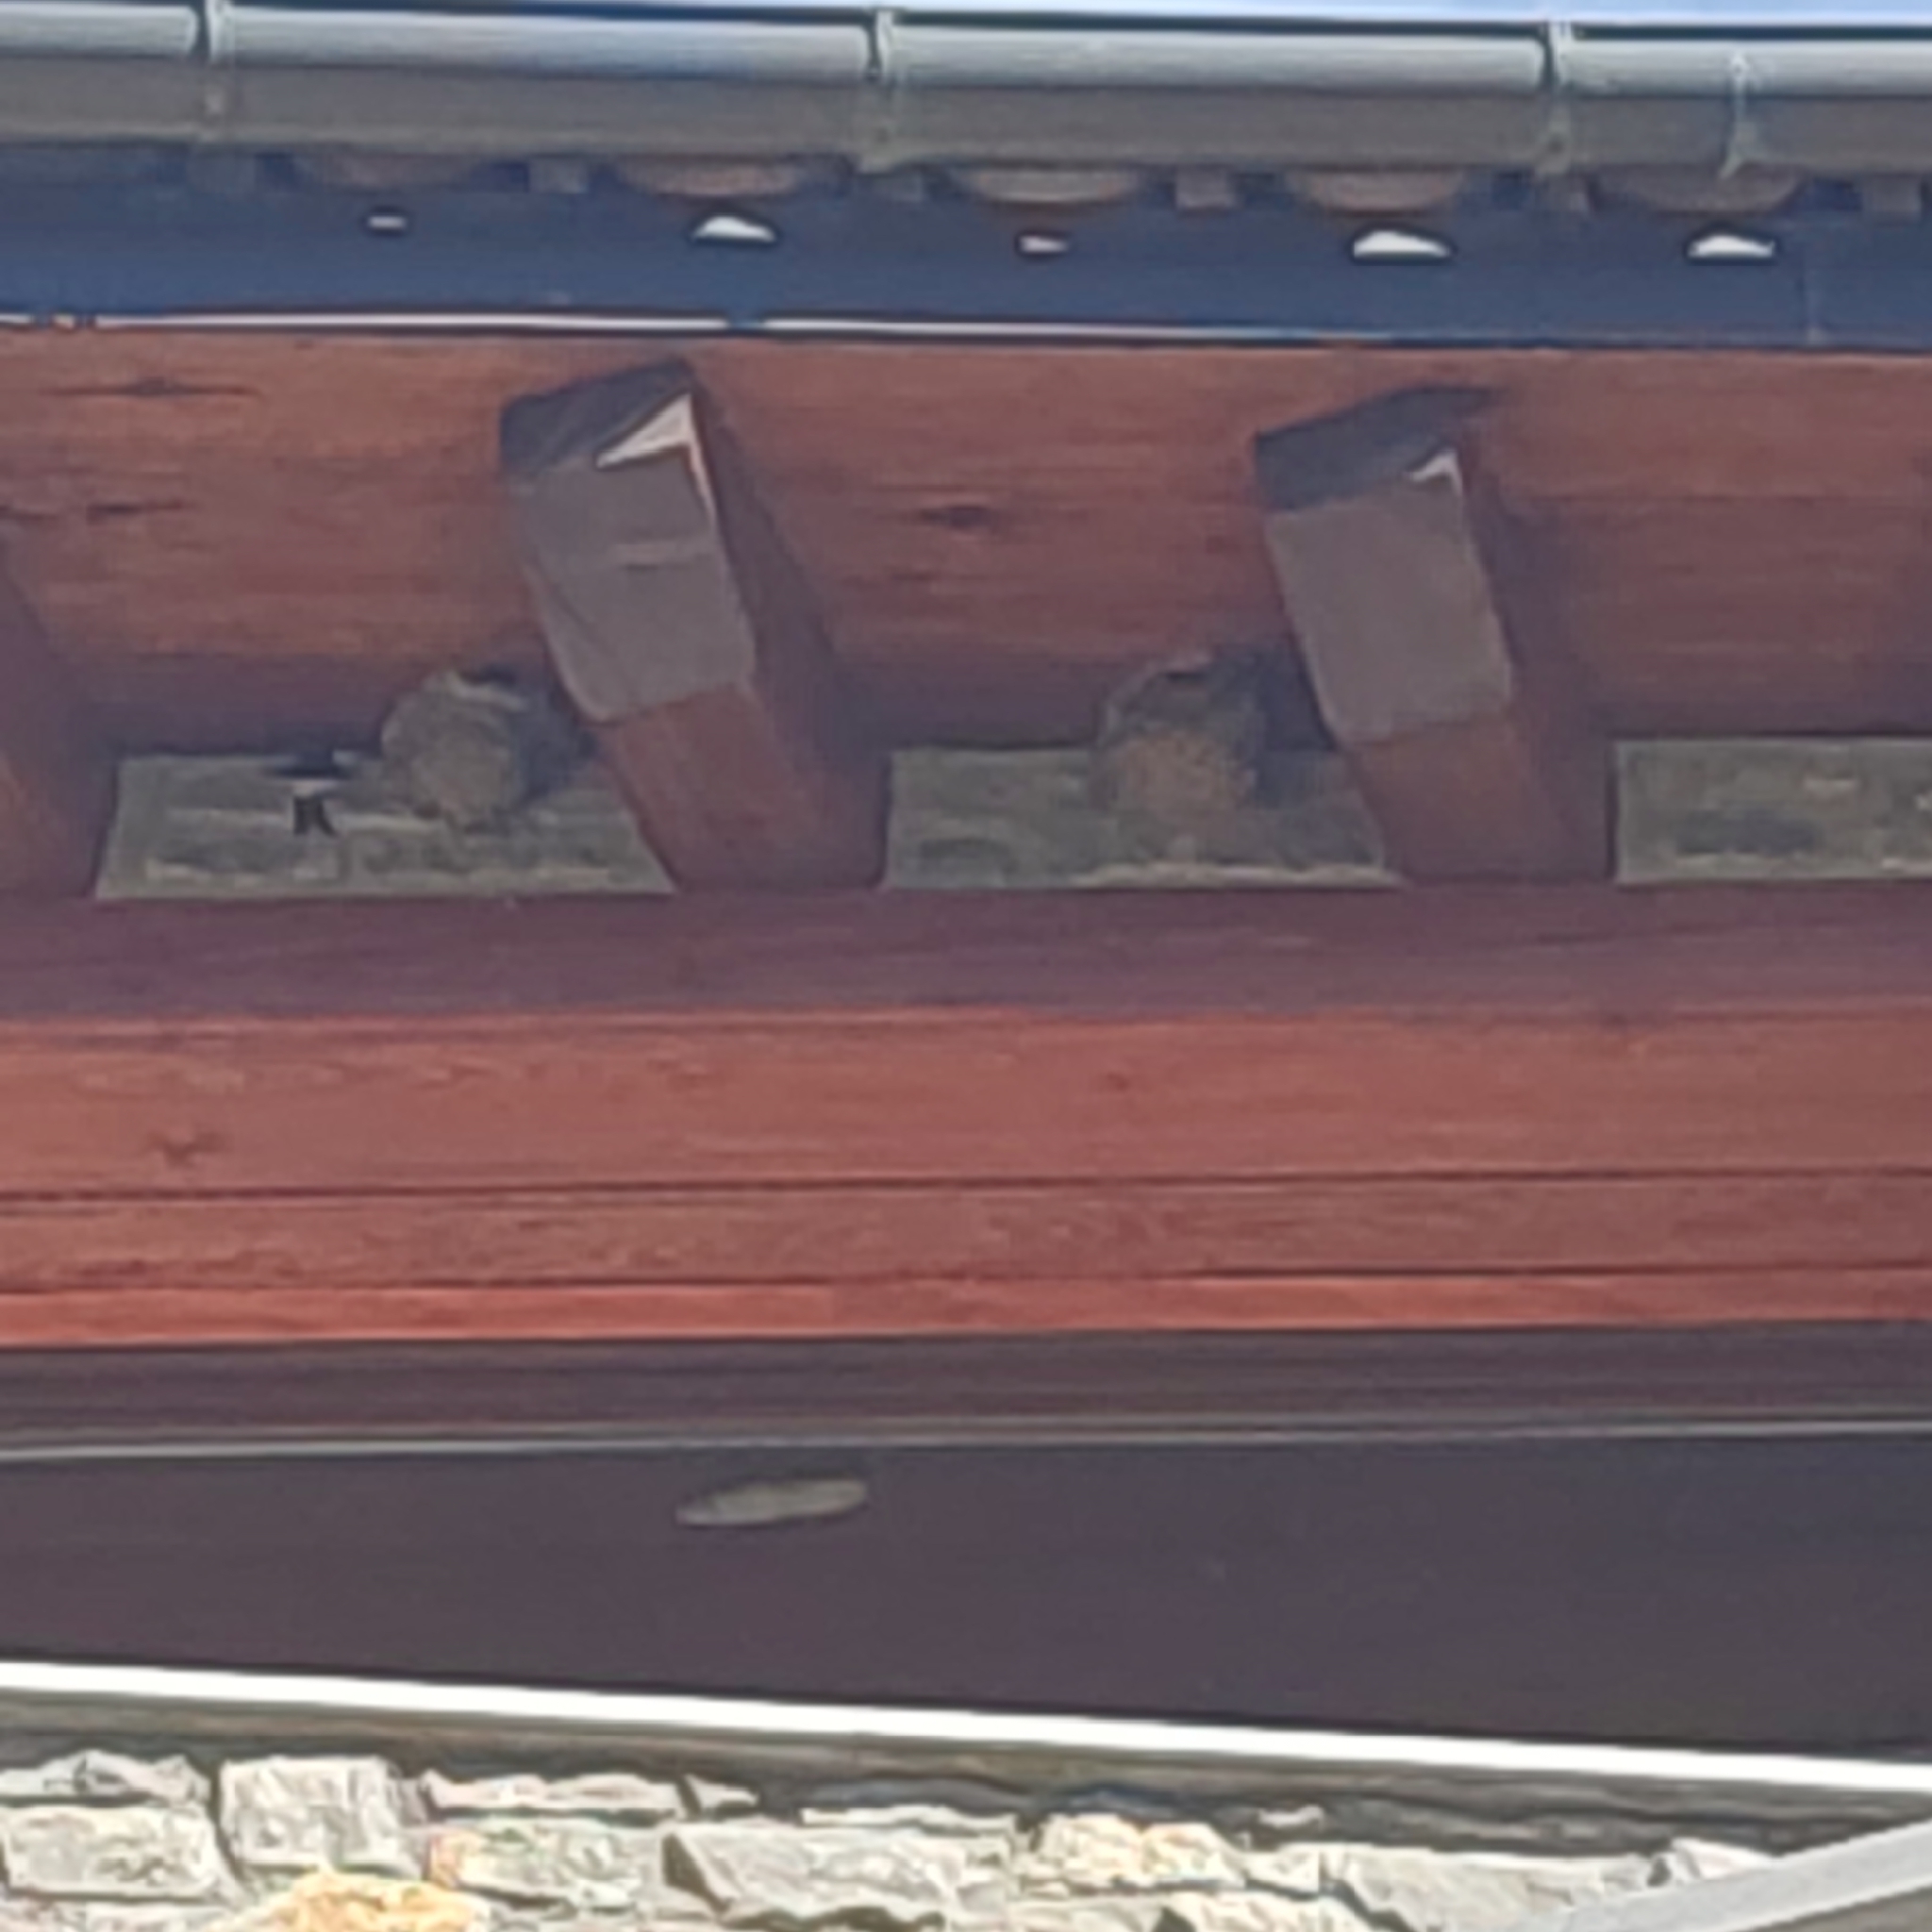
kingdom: Animalia
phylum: Chordata
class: Aves
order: Passeriformes
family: Hirundinidae
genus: Delichon
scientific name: Delichon urbicum
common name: Common house martin
